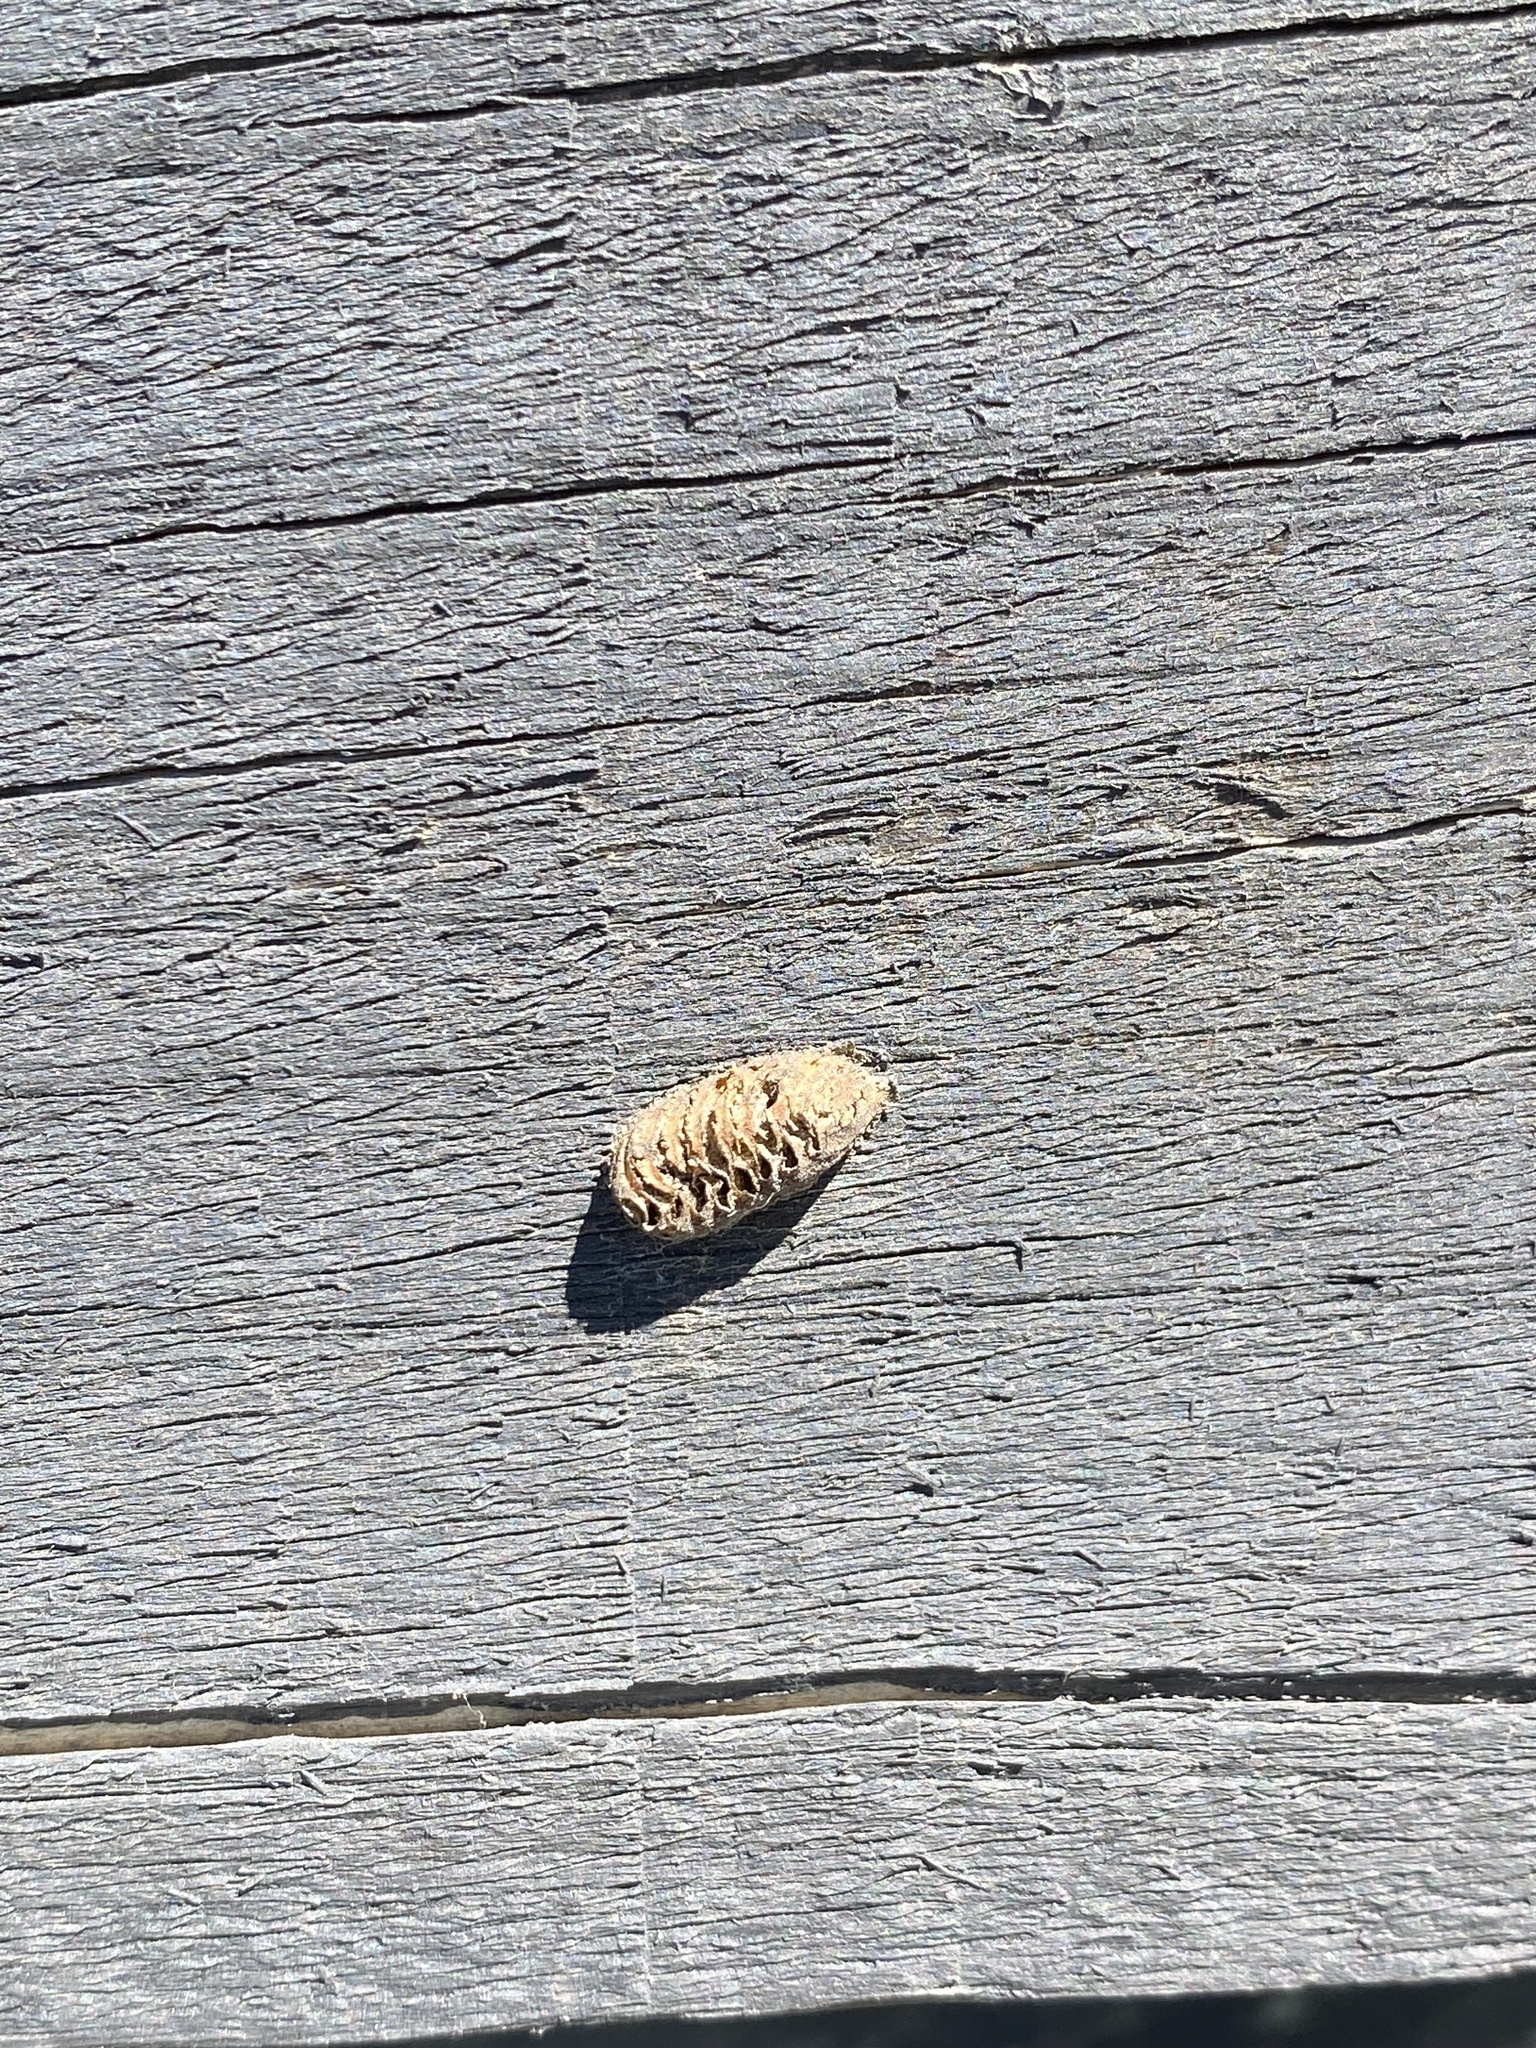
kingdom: Animalia
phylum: Arthropoda
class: Insecta
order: Mantodea
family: Mantidae
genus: Orthodera
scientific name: Orthodera novaezealandiae
